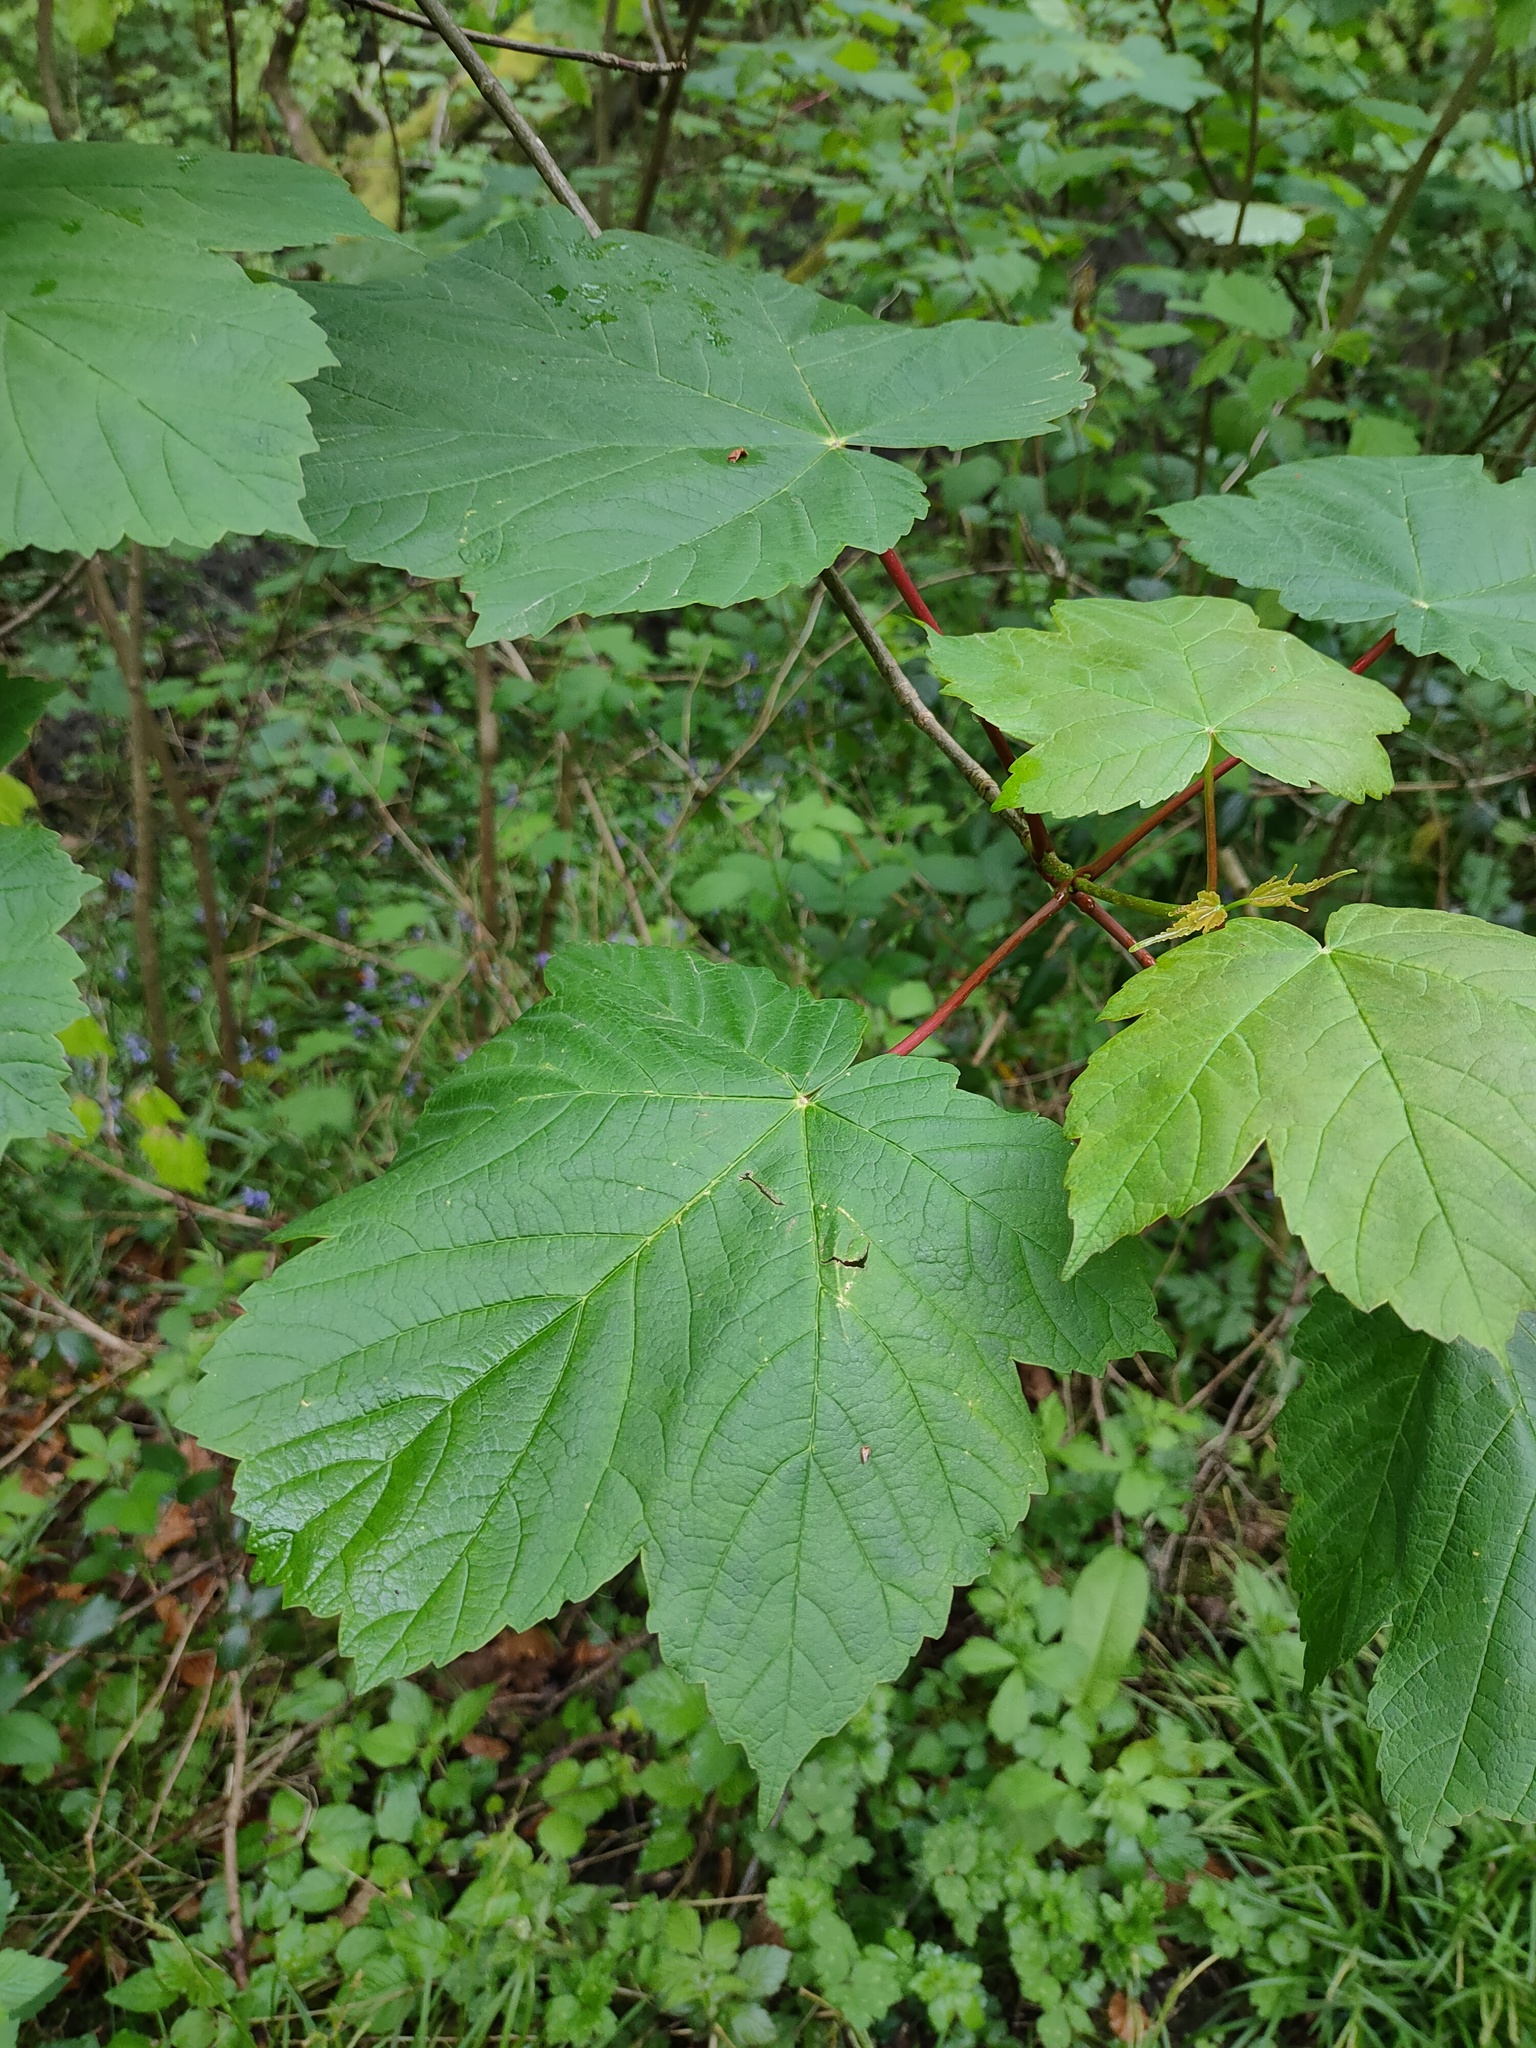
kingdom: Plantae
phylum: Tracheophyta
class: Magnoliopsida
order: Sapindales
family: Sapindaceae
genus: Acer
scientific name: Acer pseudoplatanus
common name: Sycamore
